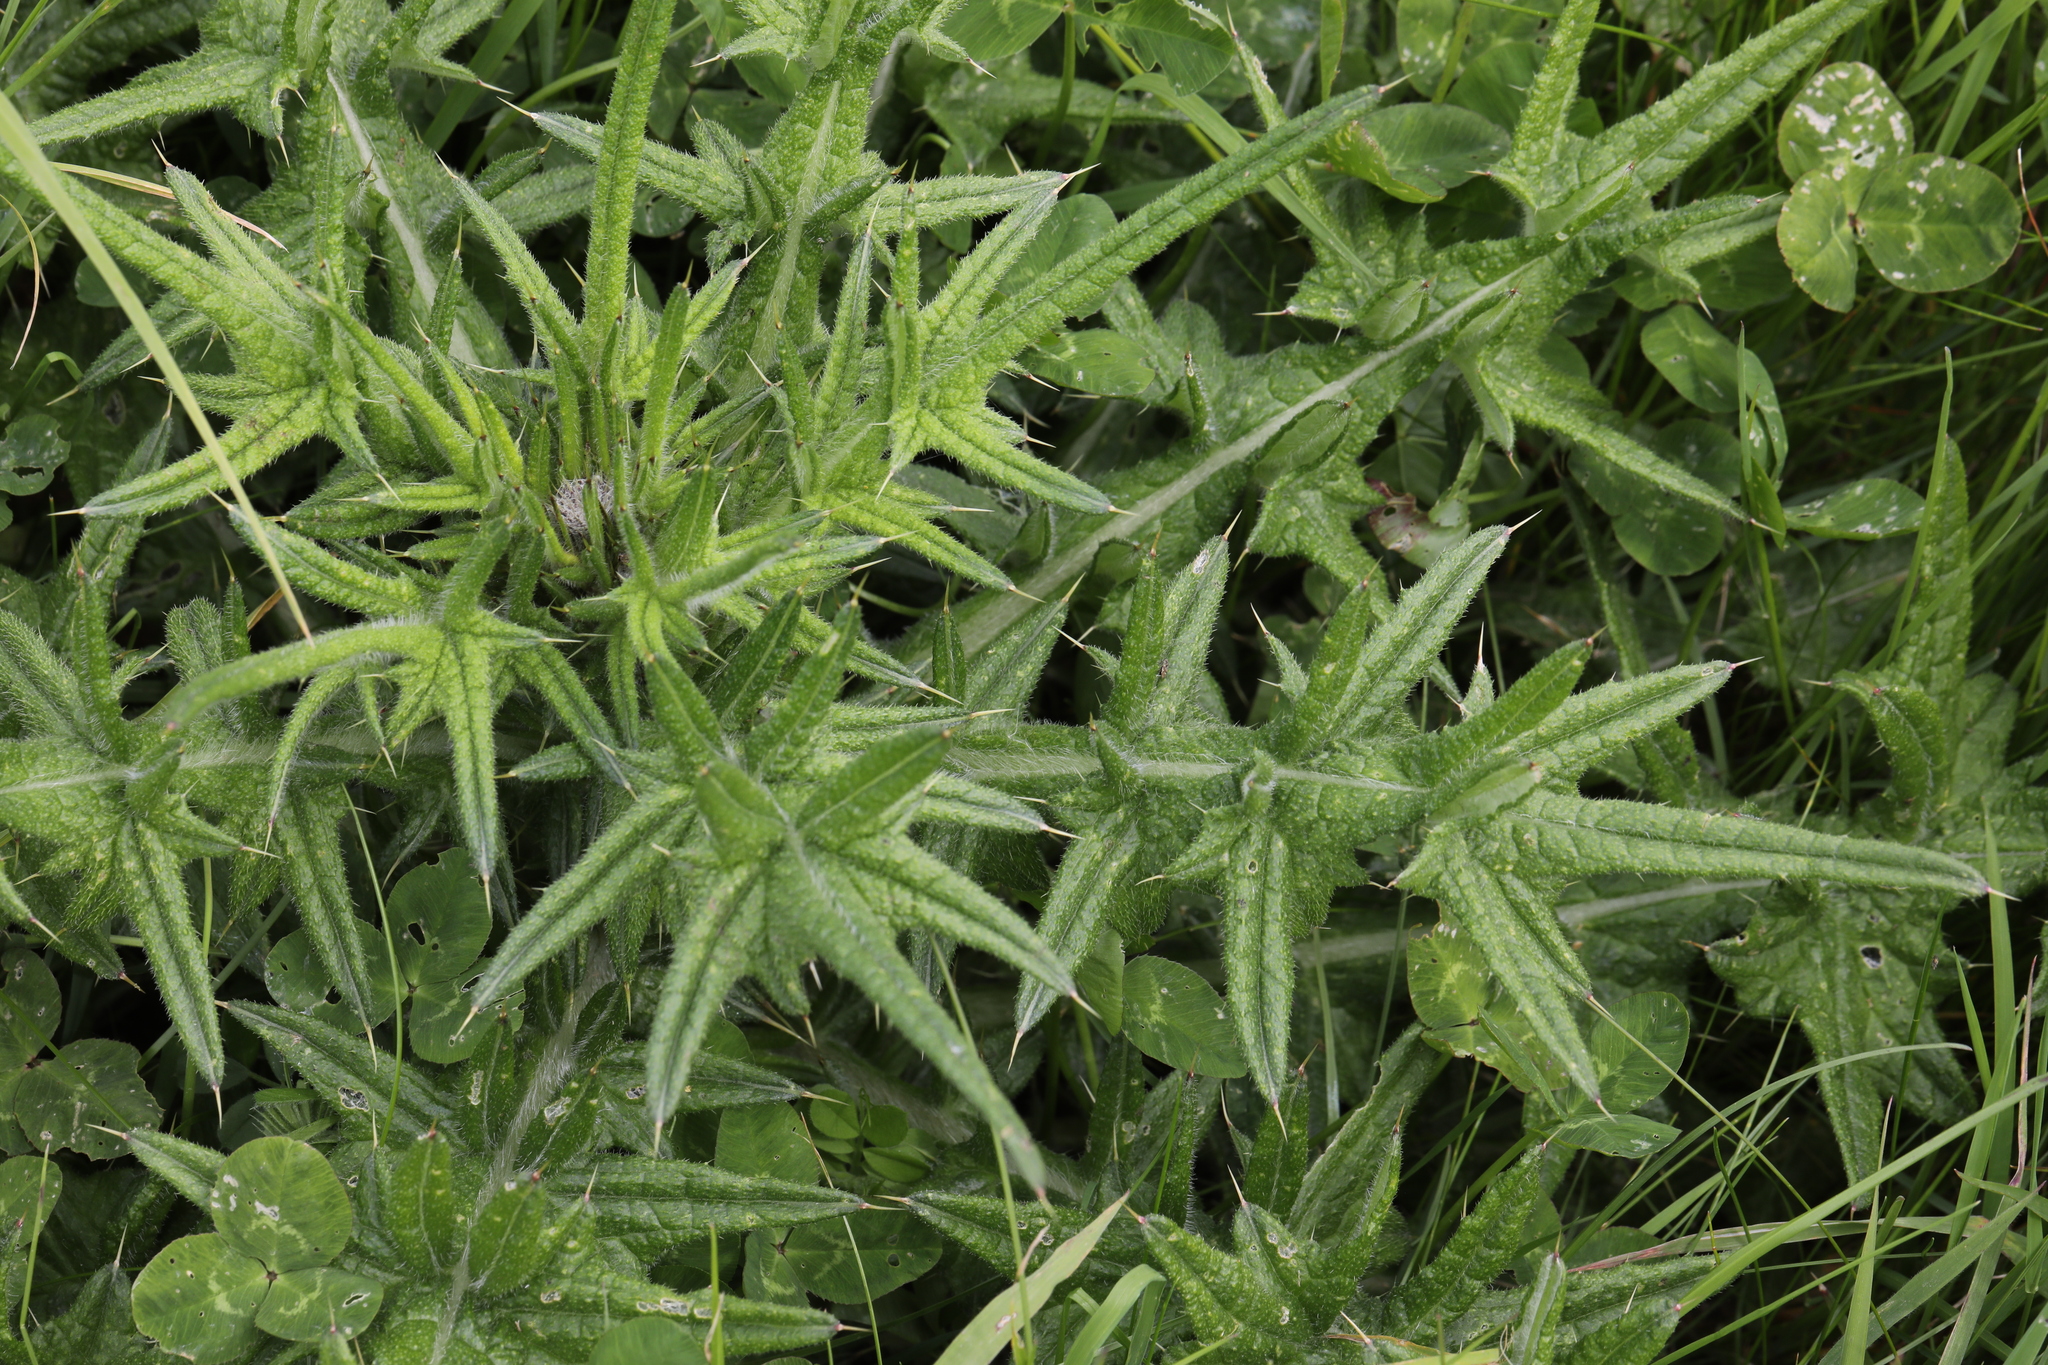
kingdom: Plantae
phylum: Tracheophyta
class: Magnoliopsida
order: Asterales
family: Asteraceae
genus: Cirsium
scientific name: Cirsium vulgare
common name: Bull thistle
